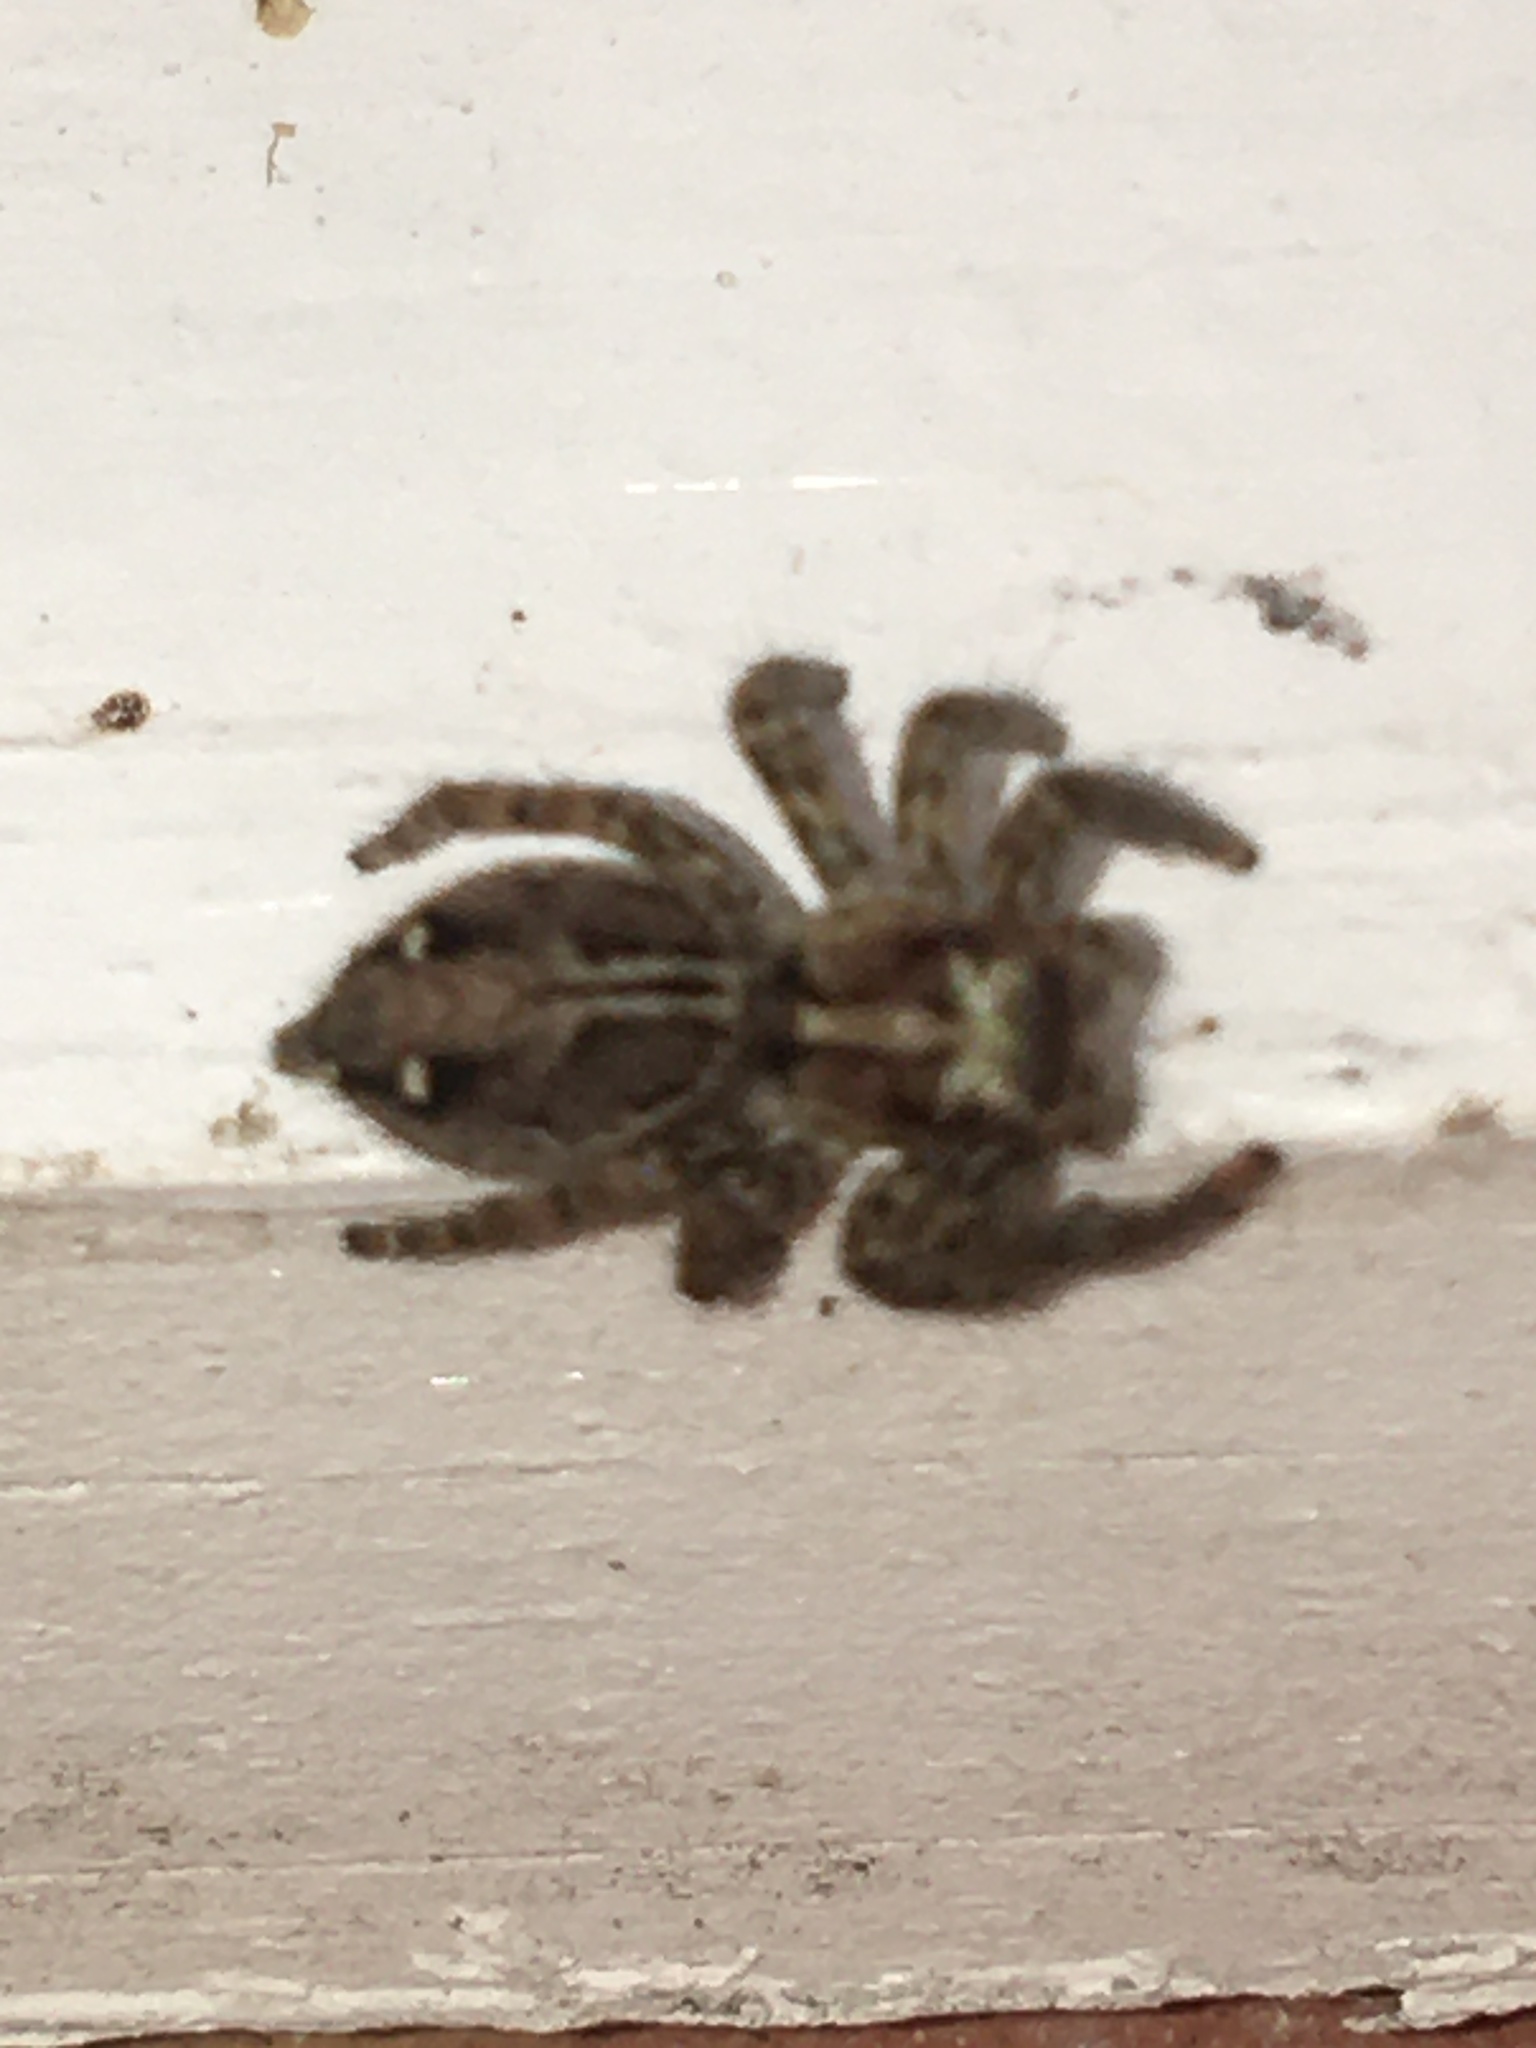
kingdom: Animalia
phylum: Arthropoda
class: Arachnida
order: Araneae
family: Salticidae
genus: Plexippus
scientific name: Plexippus paykulli
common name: Pantropical jumper
